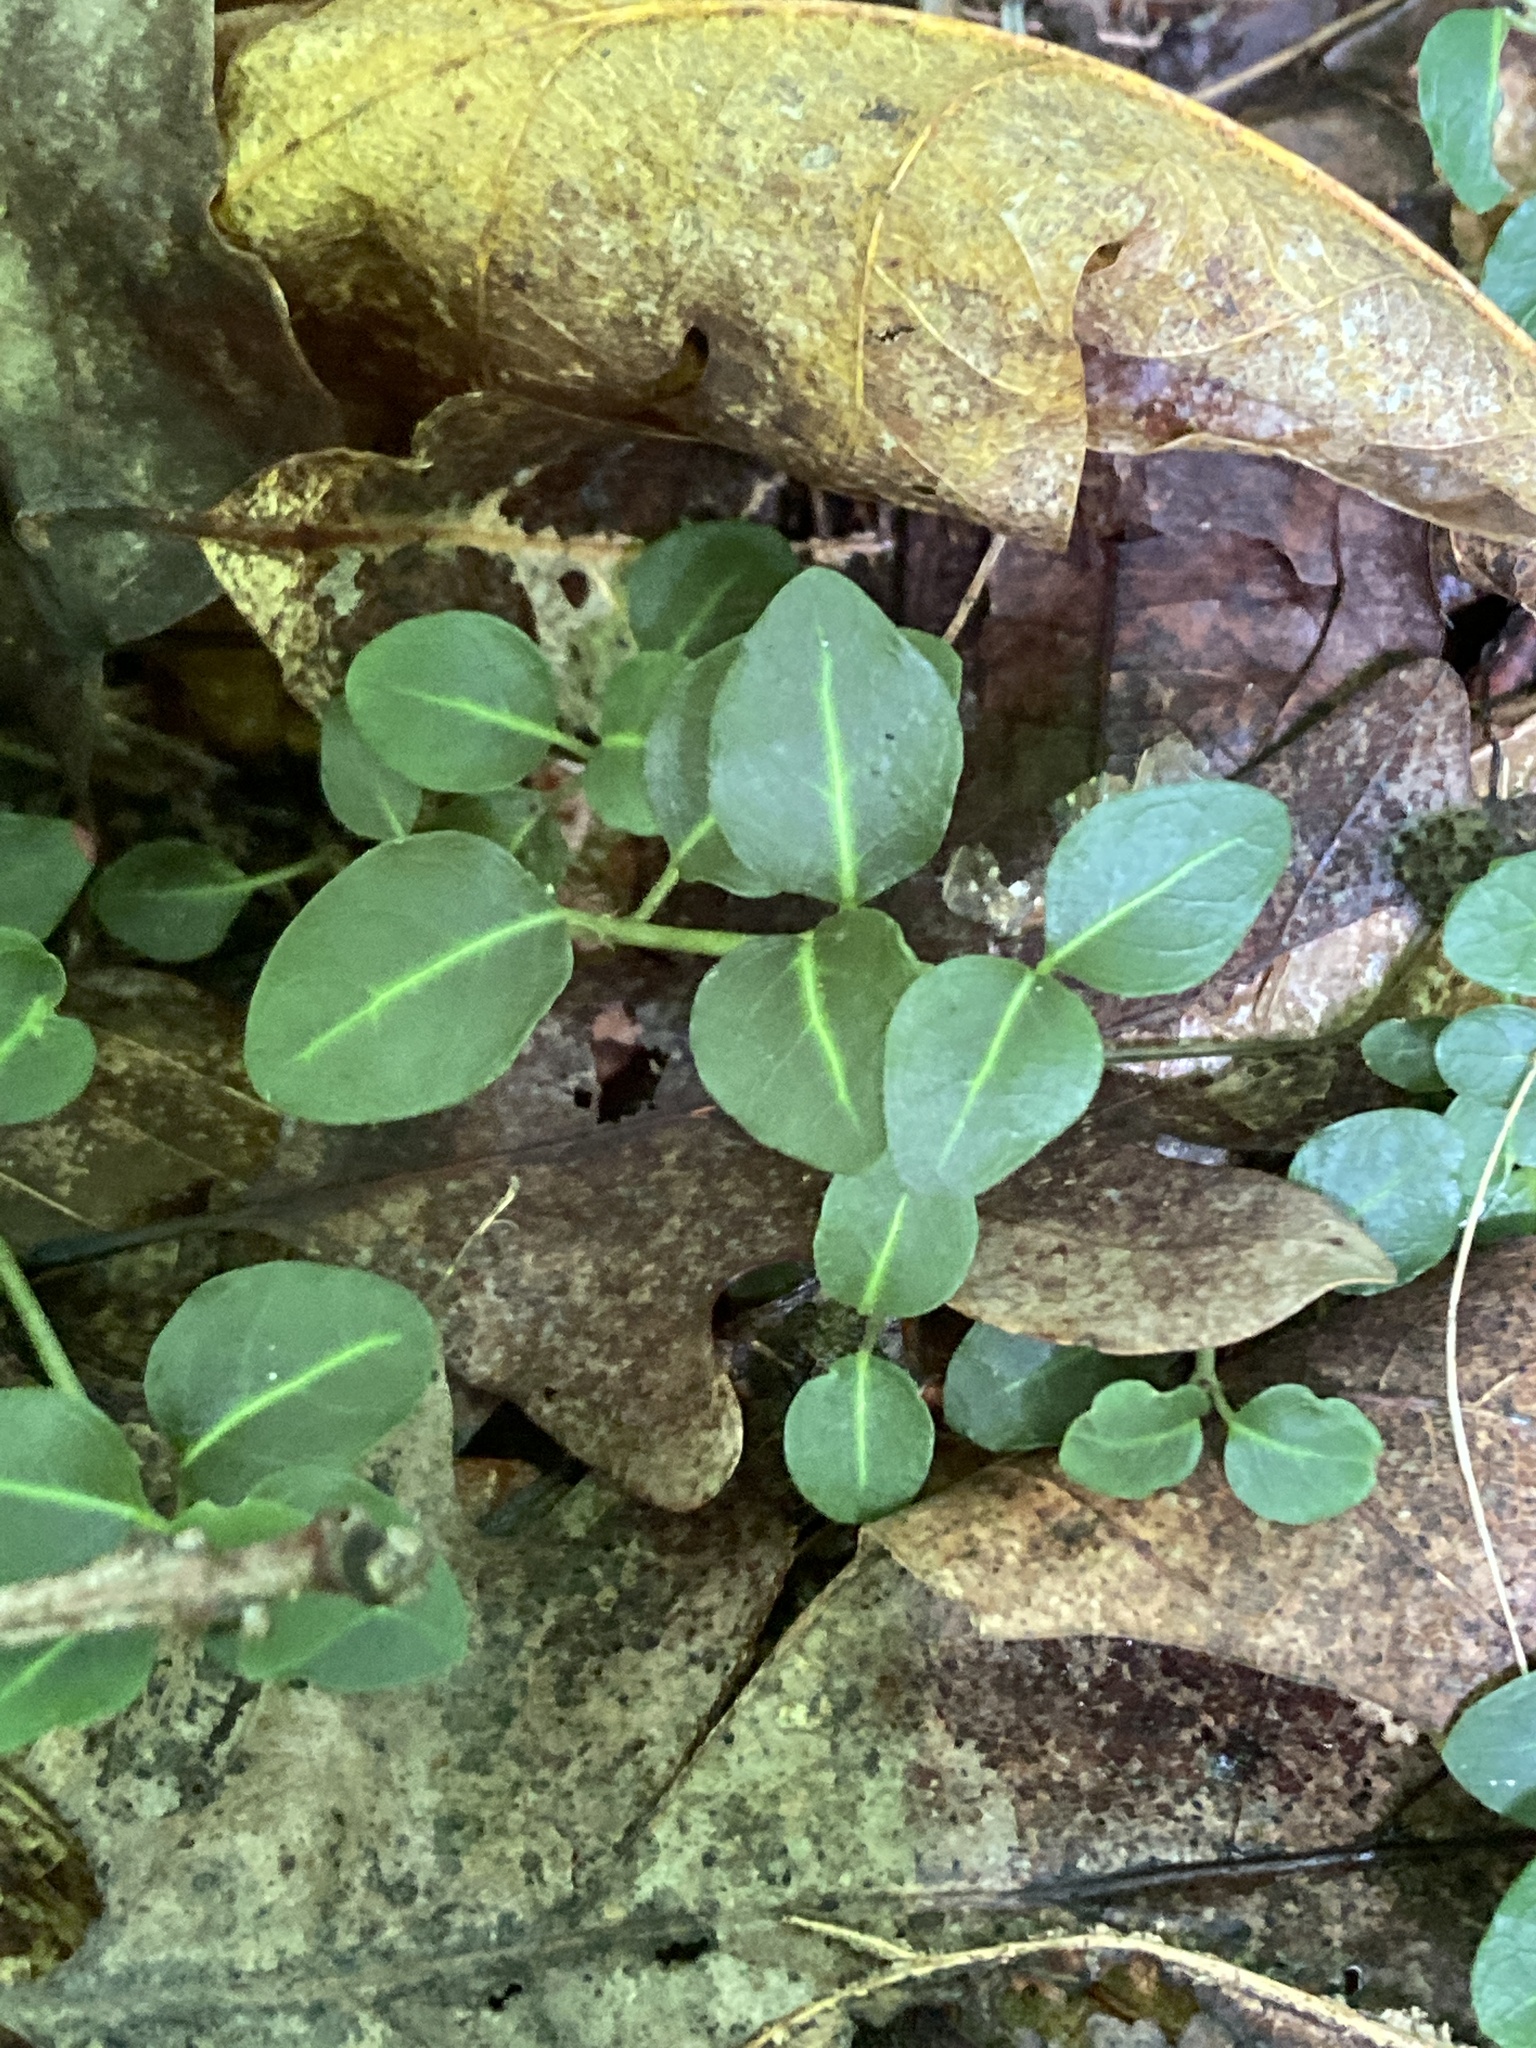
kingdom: Plantae
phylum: Tracheophyta
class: Magnoliopsida
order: Gentianales
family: Rubiaceae
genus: Mitchella
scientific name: Mitchella repens
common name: Partridge-berry
